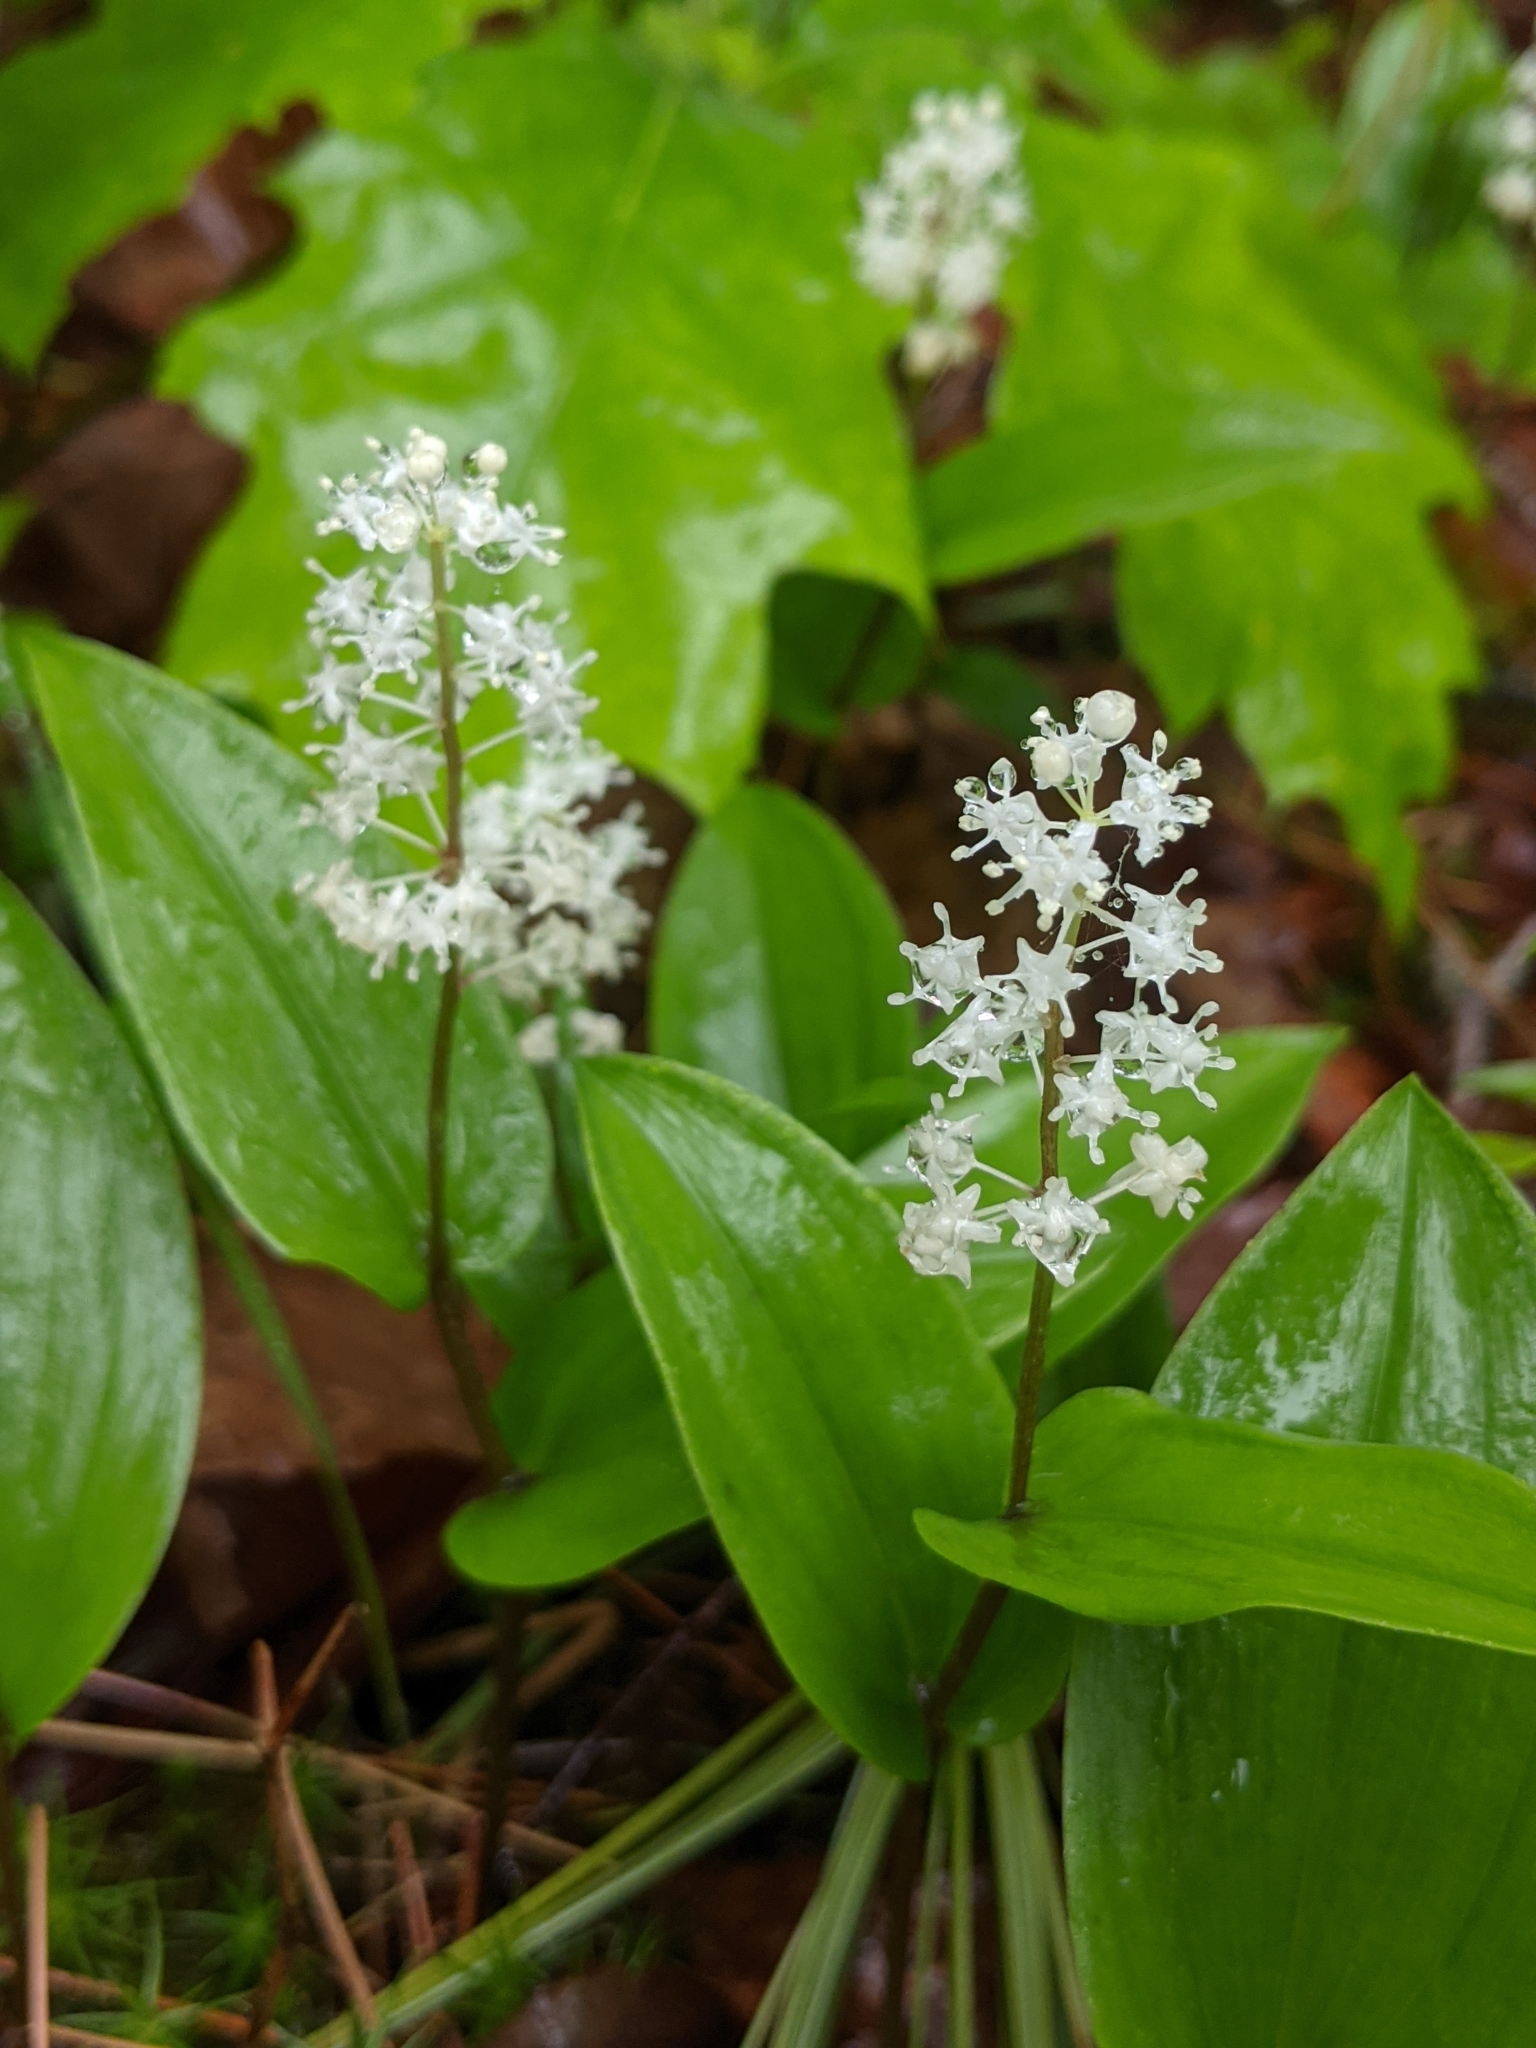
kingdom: Plantae
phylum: Tracheophyta
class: Liliopsida
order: Asparagales
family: Asparagaceae
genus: Maianthemum
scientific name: Maianthemum canadense
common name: False lily-of-the-valley
